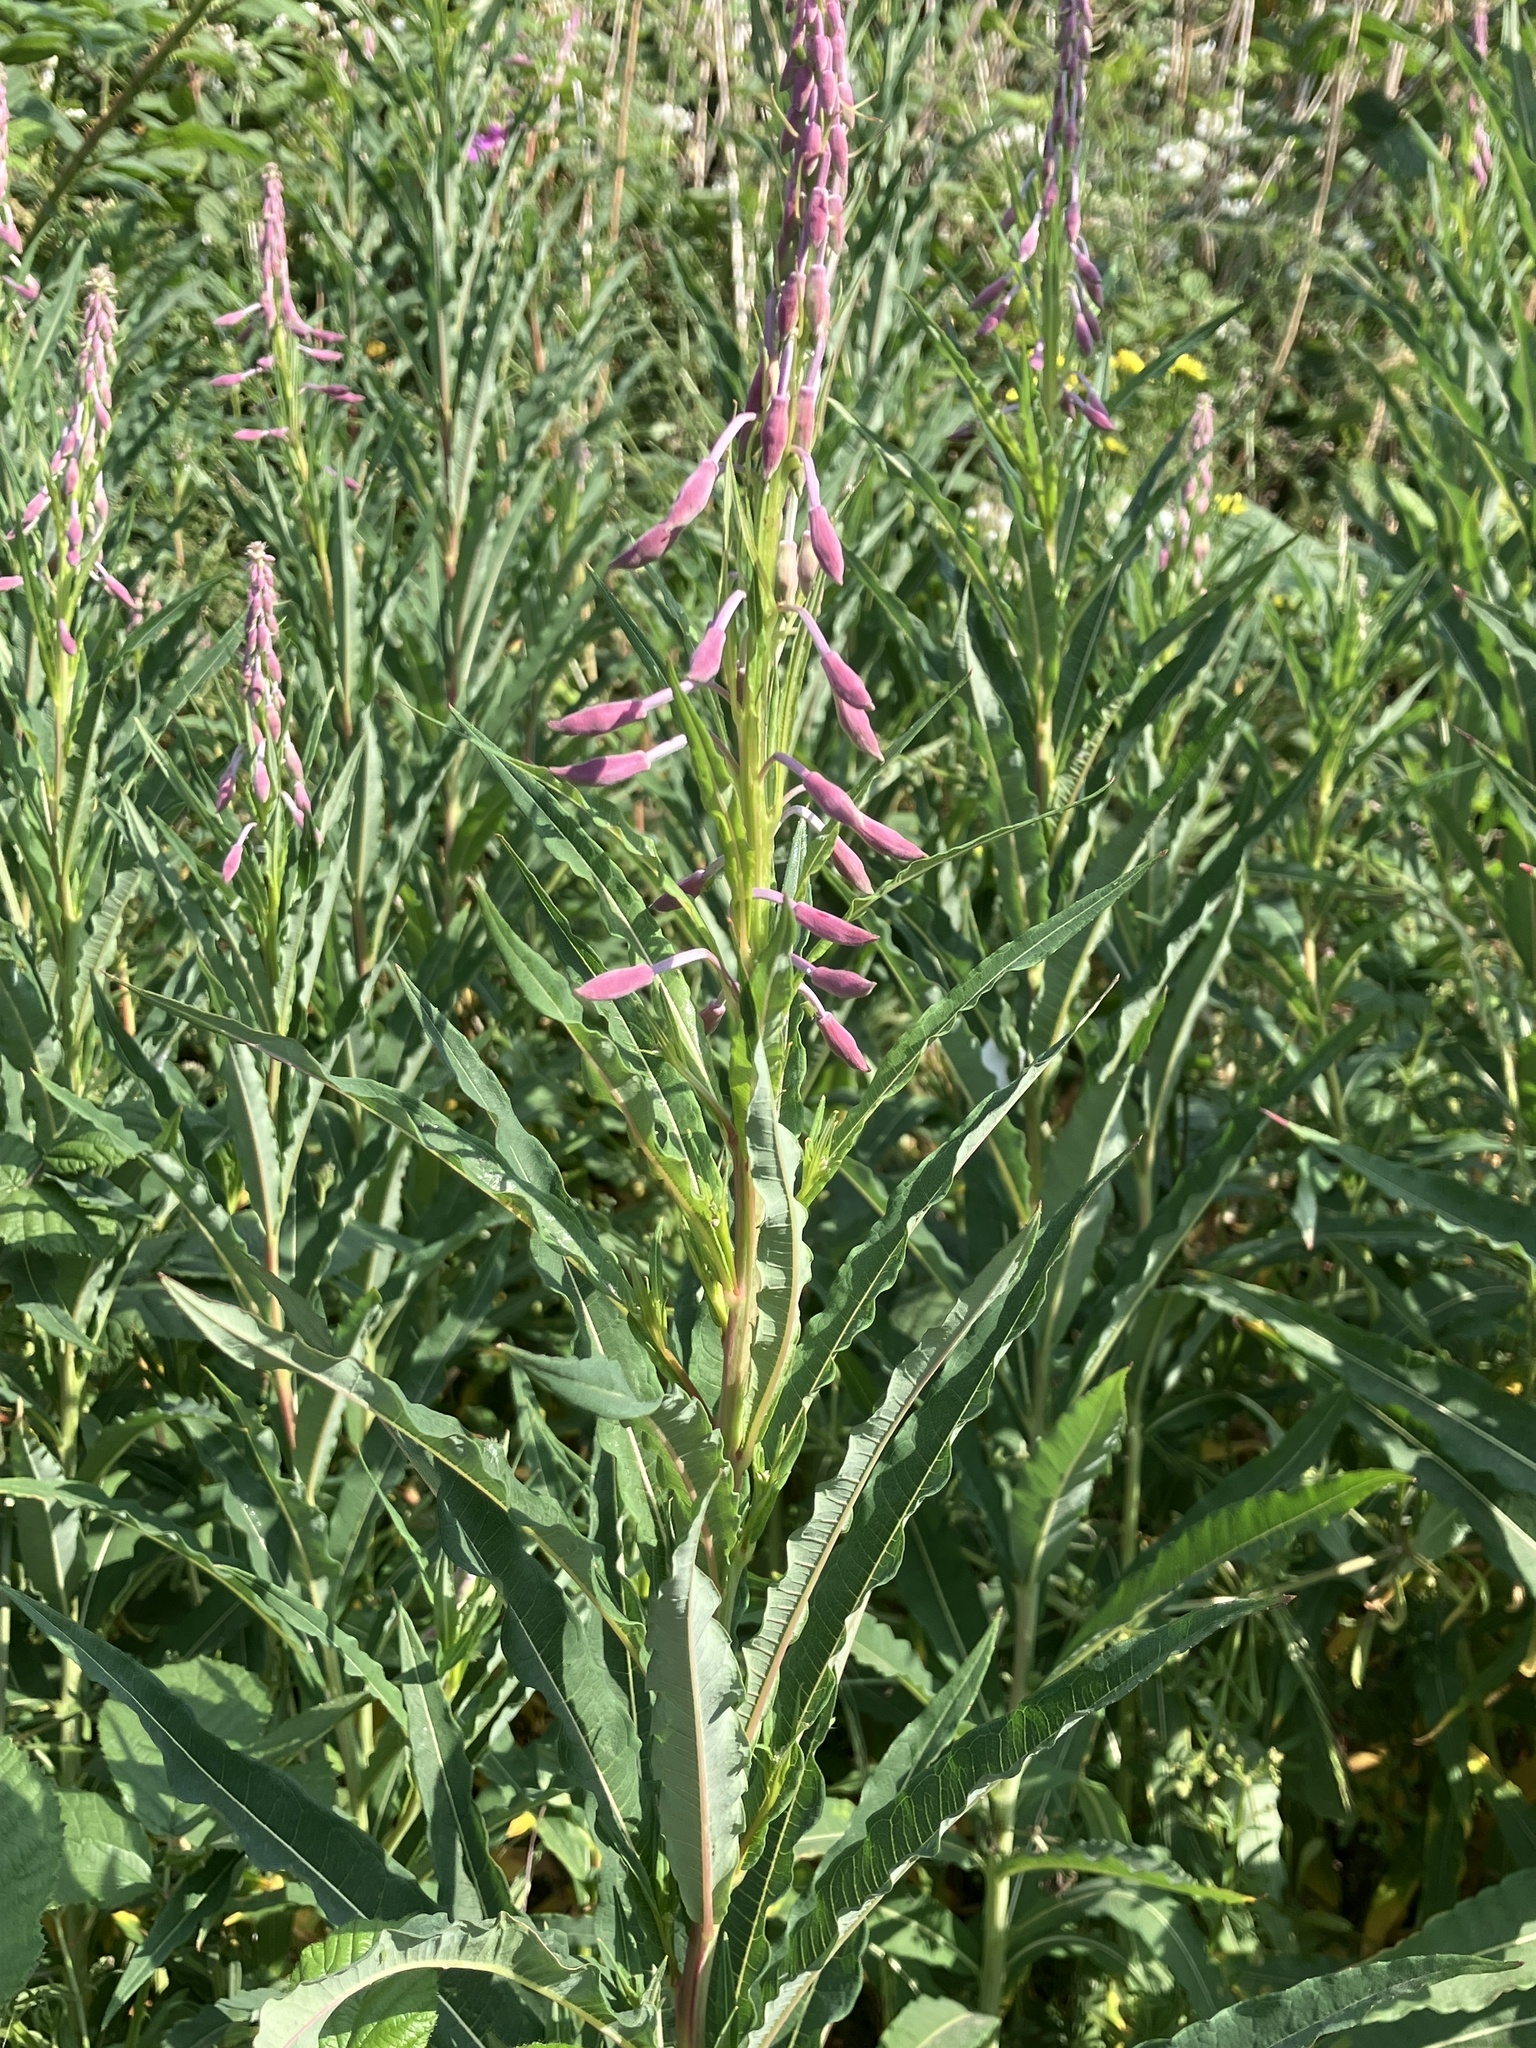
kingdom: Plantae
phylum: Tracheophyta
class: Magnoliopsida
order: Myrtales
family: Onagraceae
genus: Chamaenerion
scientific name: Chamaenerion angustifolium
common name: Fireweed
